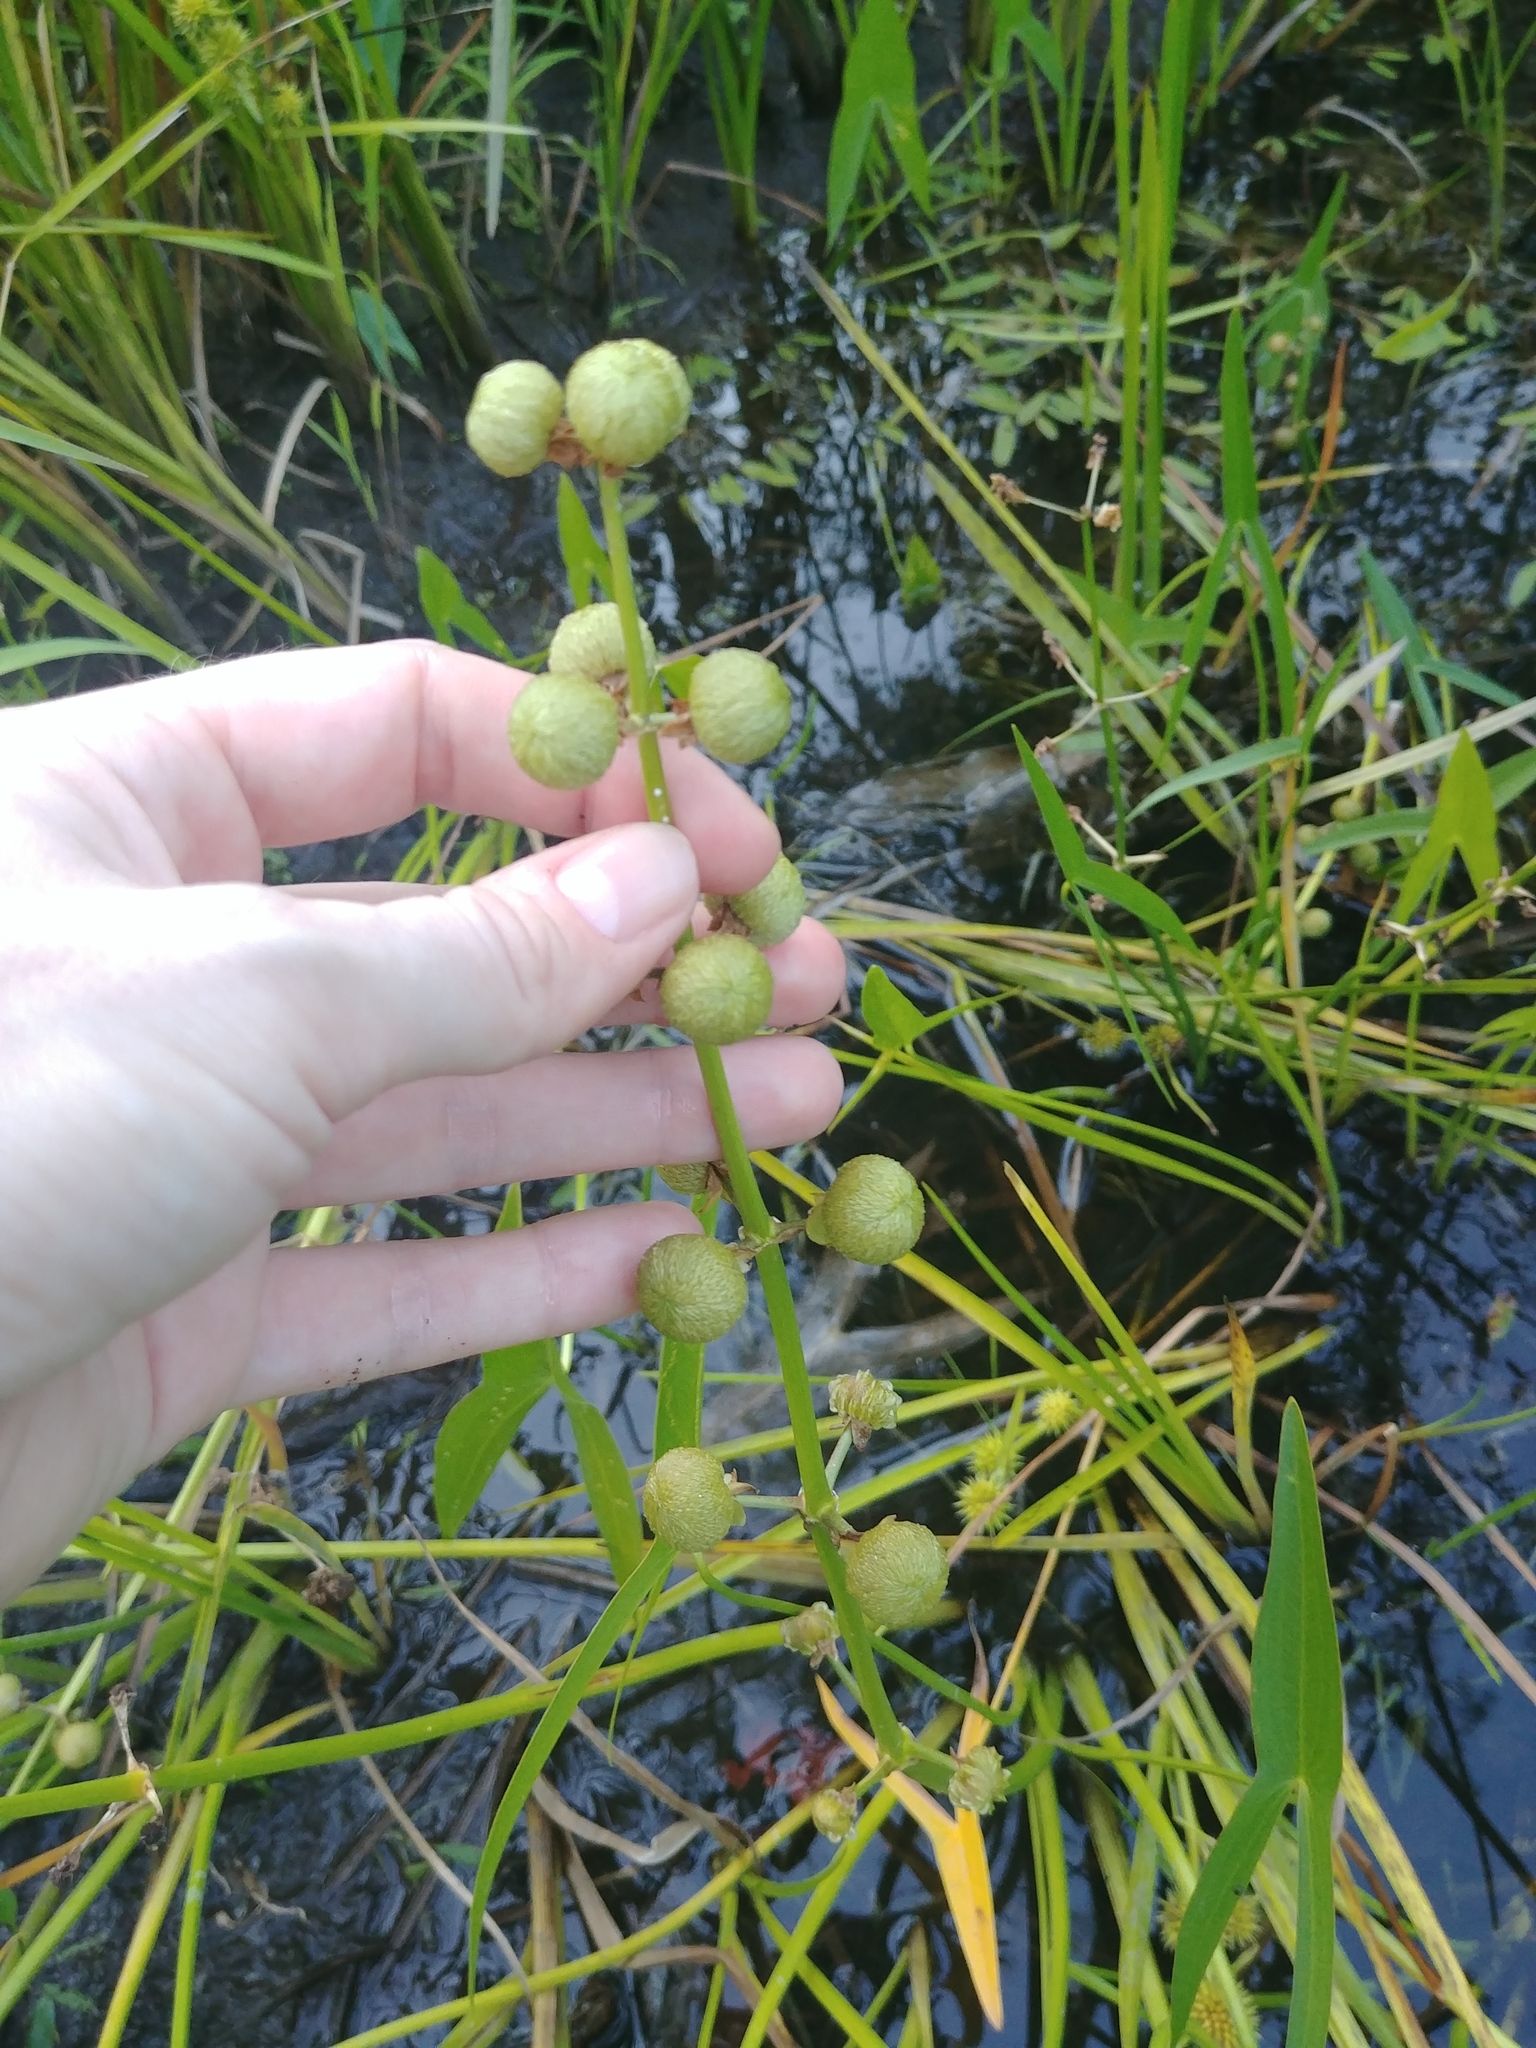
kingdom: Plantae
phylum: Tracheophyta
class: Liliopsida
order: Alismatales
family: Alismataceae
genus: Sagittaria
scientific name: Sagittaria latifolia
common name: Duck-potato
